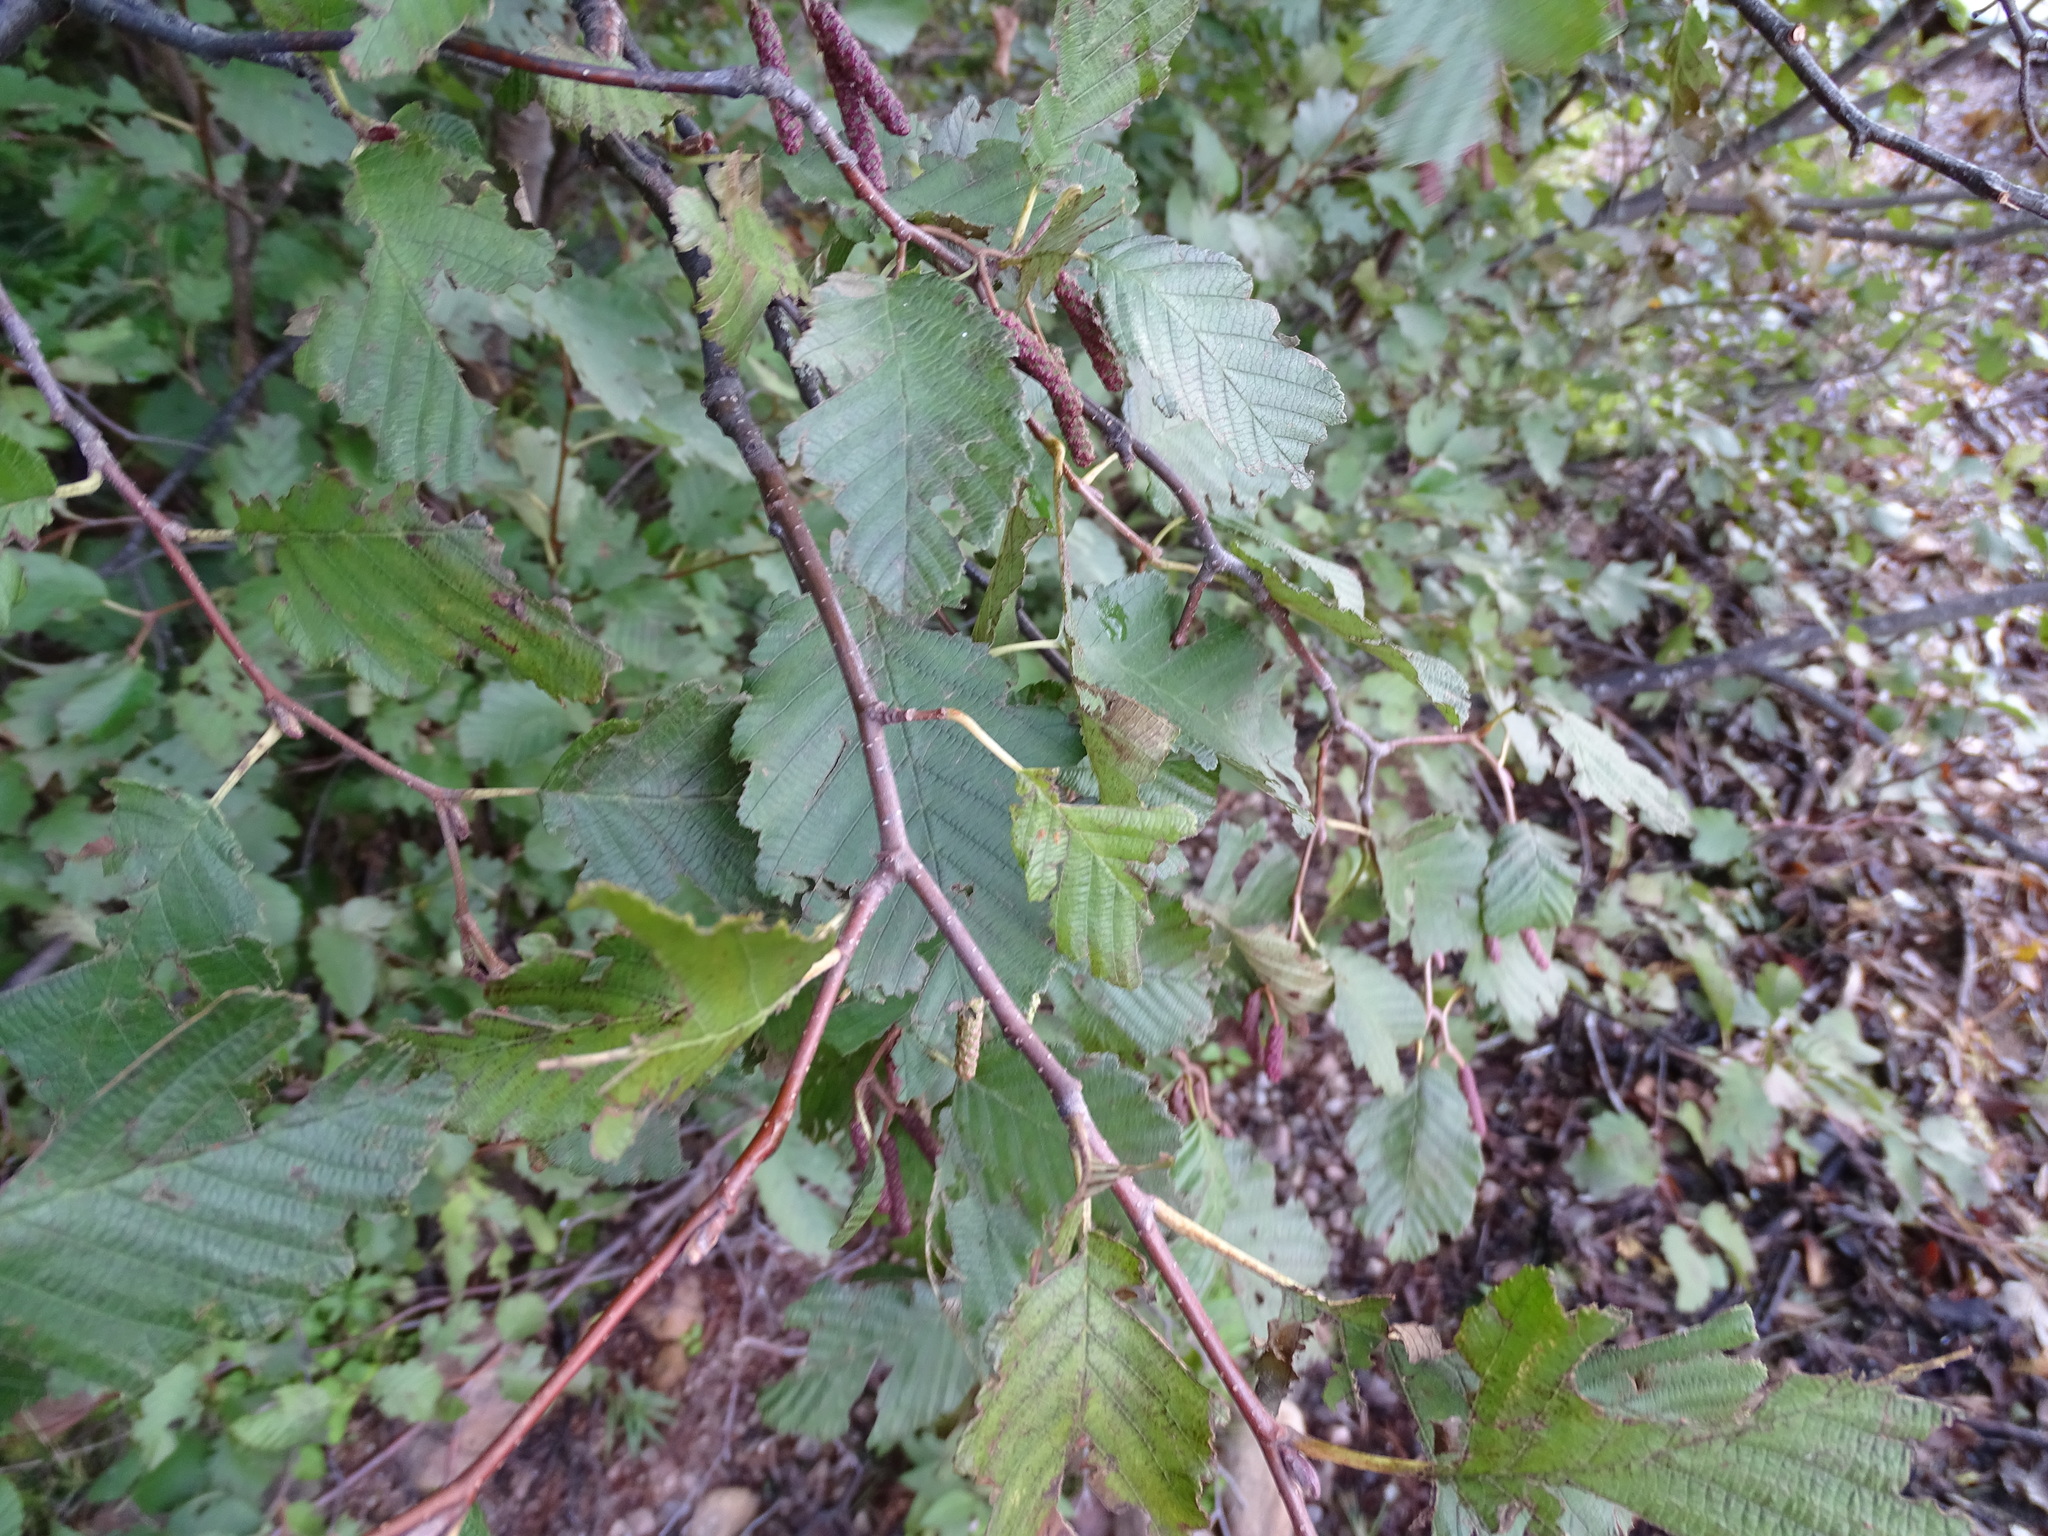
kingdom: Plantae
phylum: Tracheophyta
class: Magnoliopsida
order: Fagales
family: Betulaceae
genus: Alnus
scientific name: Alnus incana
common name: Grey alder
